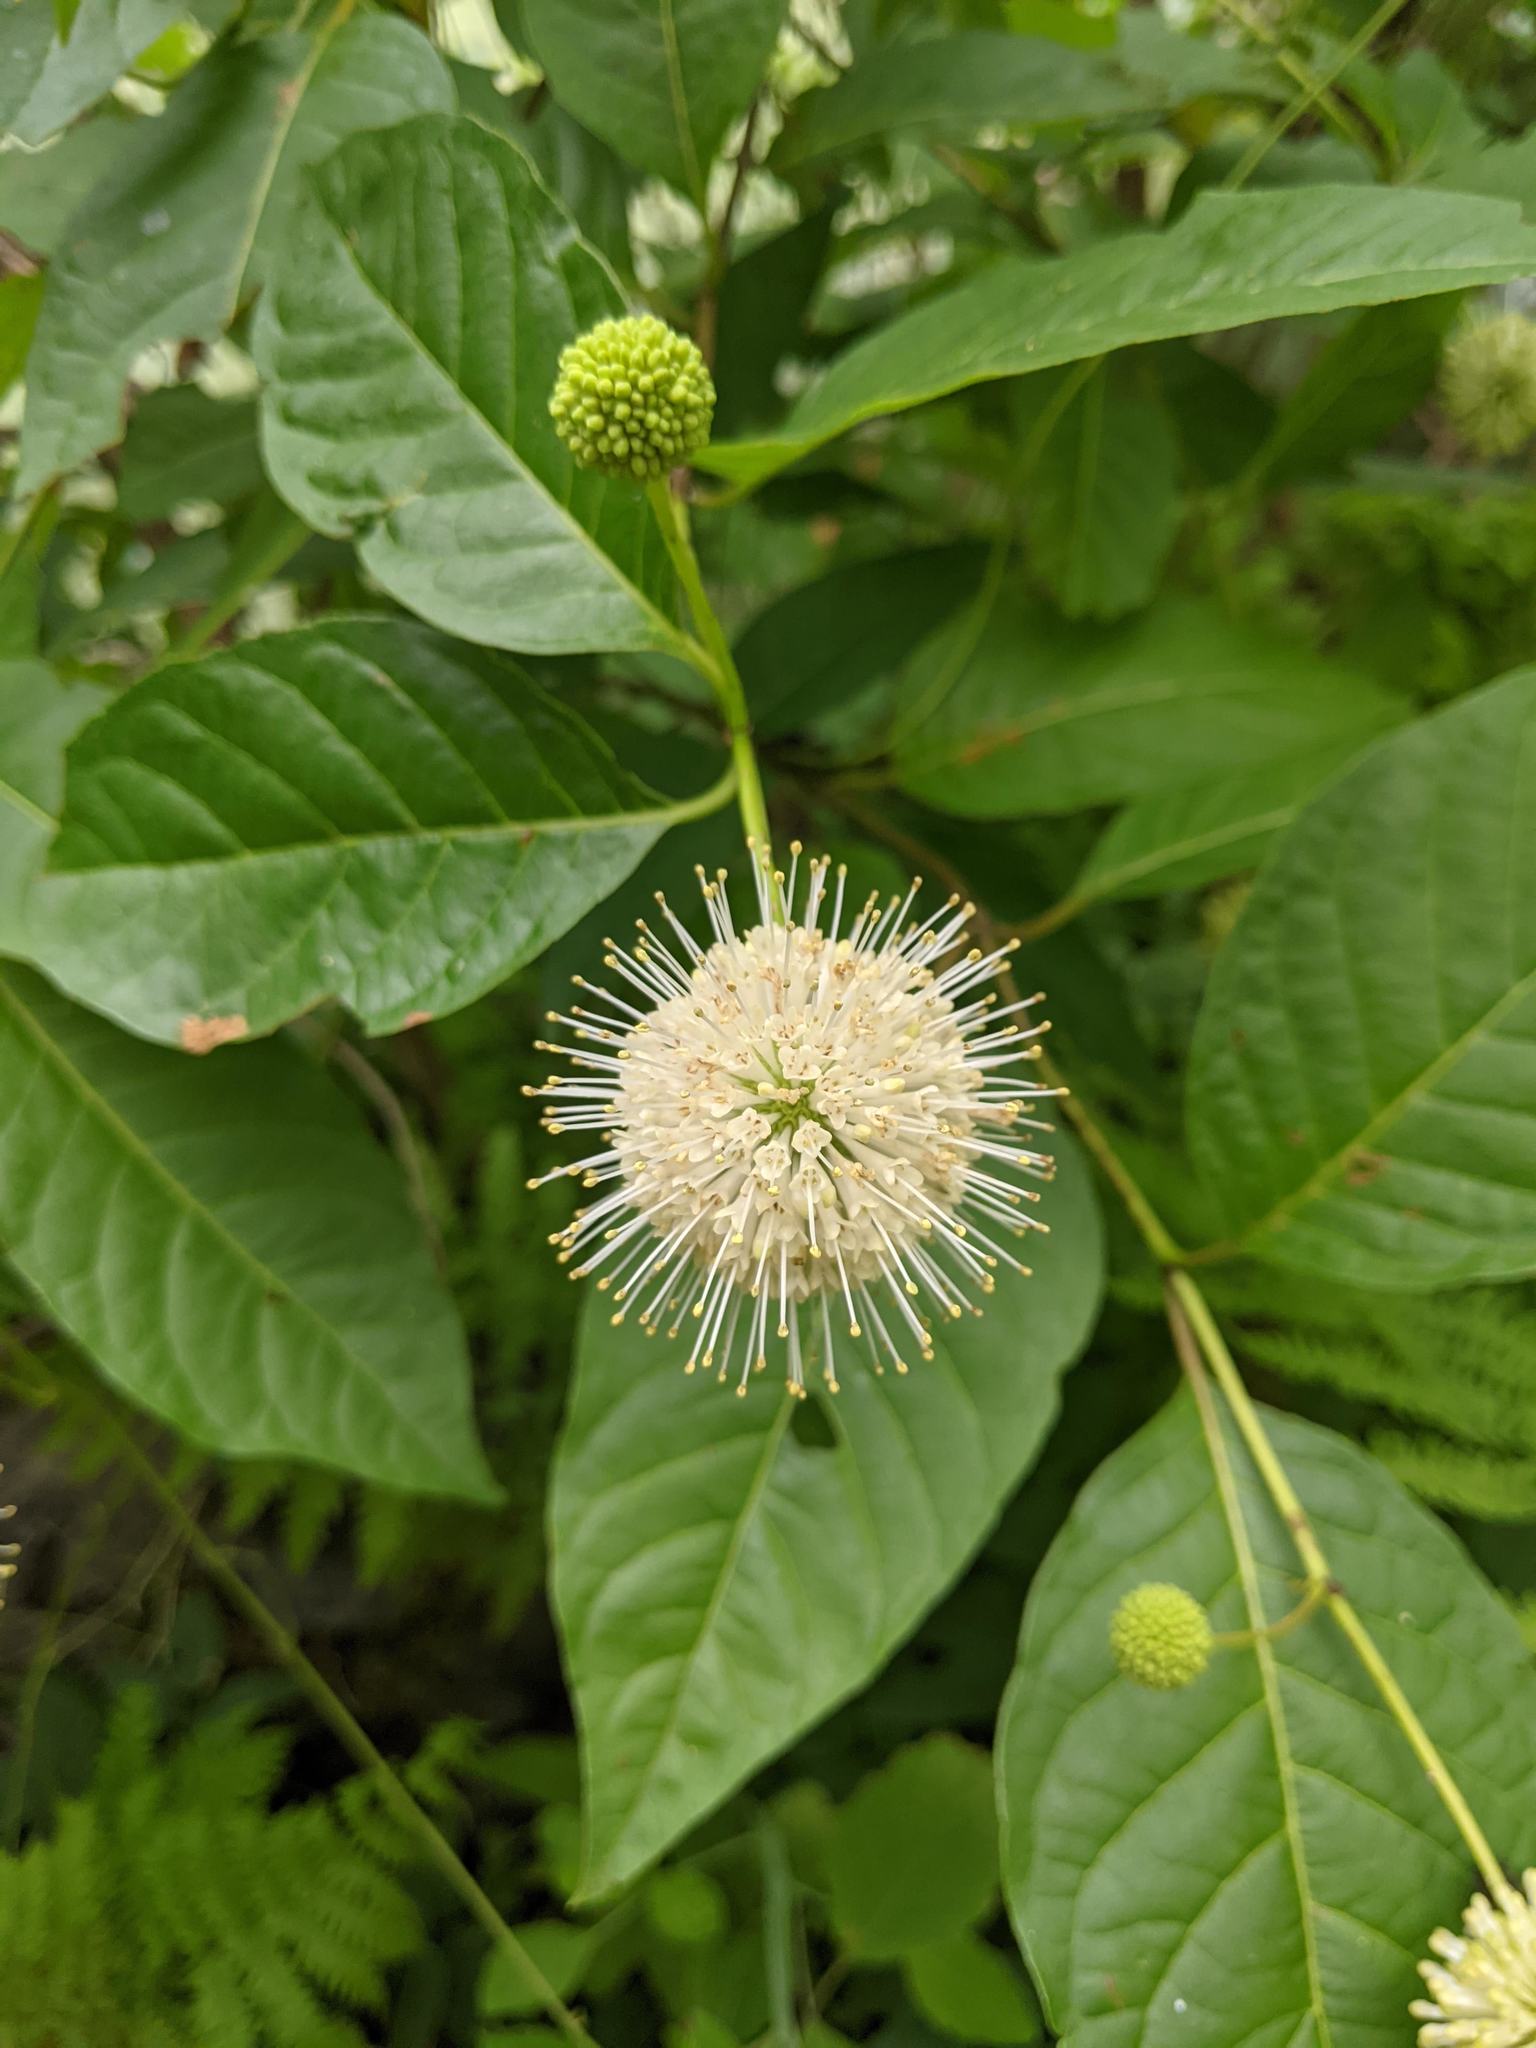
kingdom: Plantae
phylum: Tracheophyta
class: Magnoliopsida
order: Gentianales
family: Rubiaceae
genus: Cephalanthus
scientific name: Cephalanthus occidentalis
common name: Button-willow
